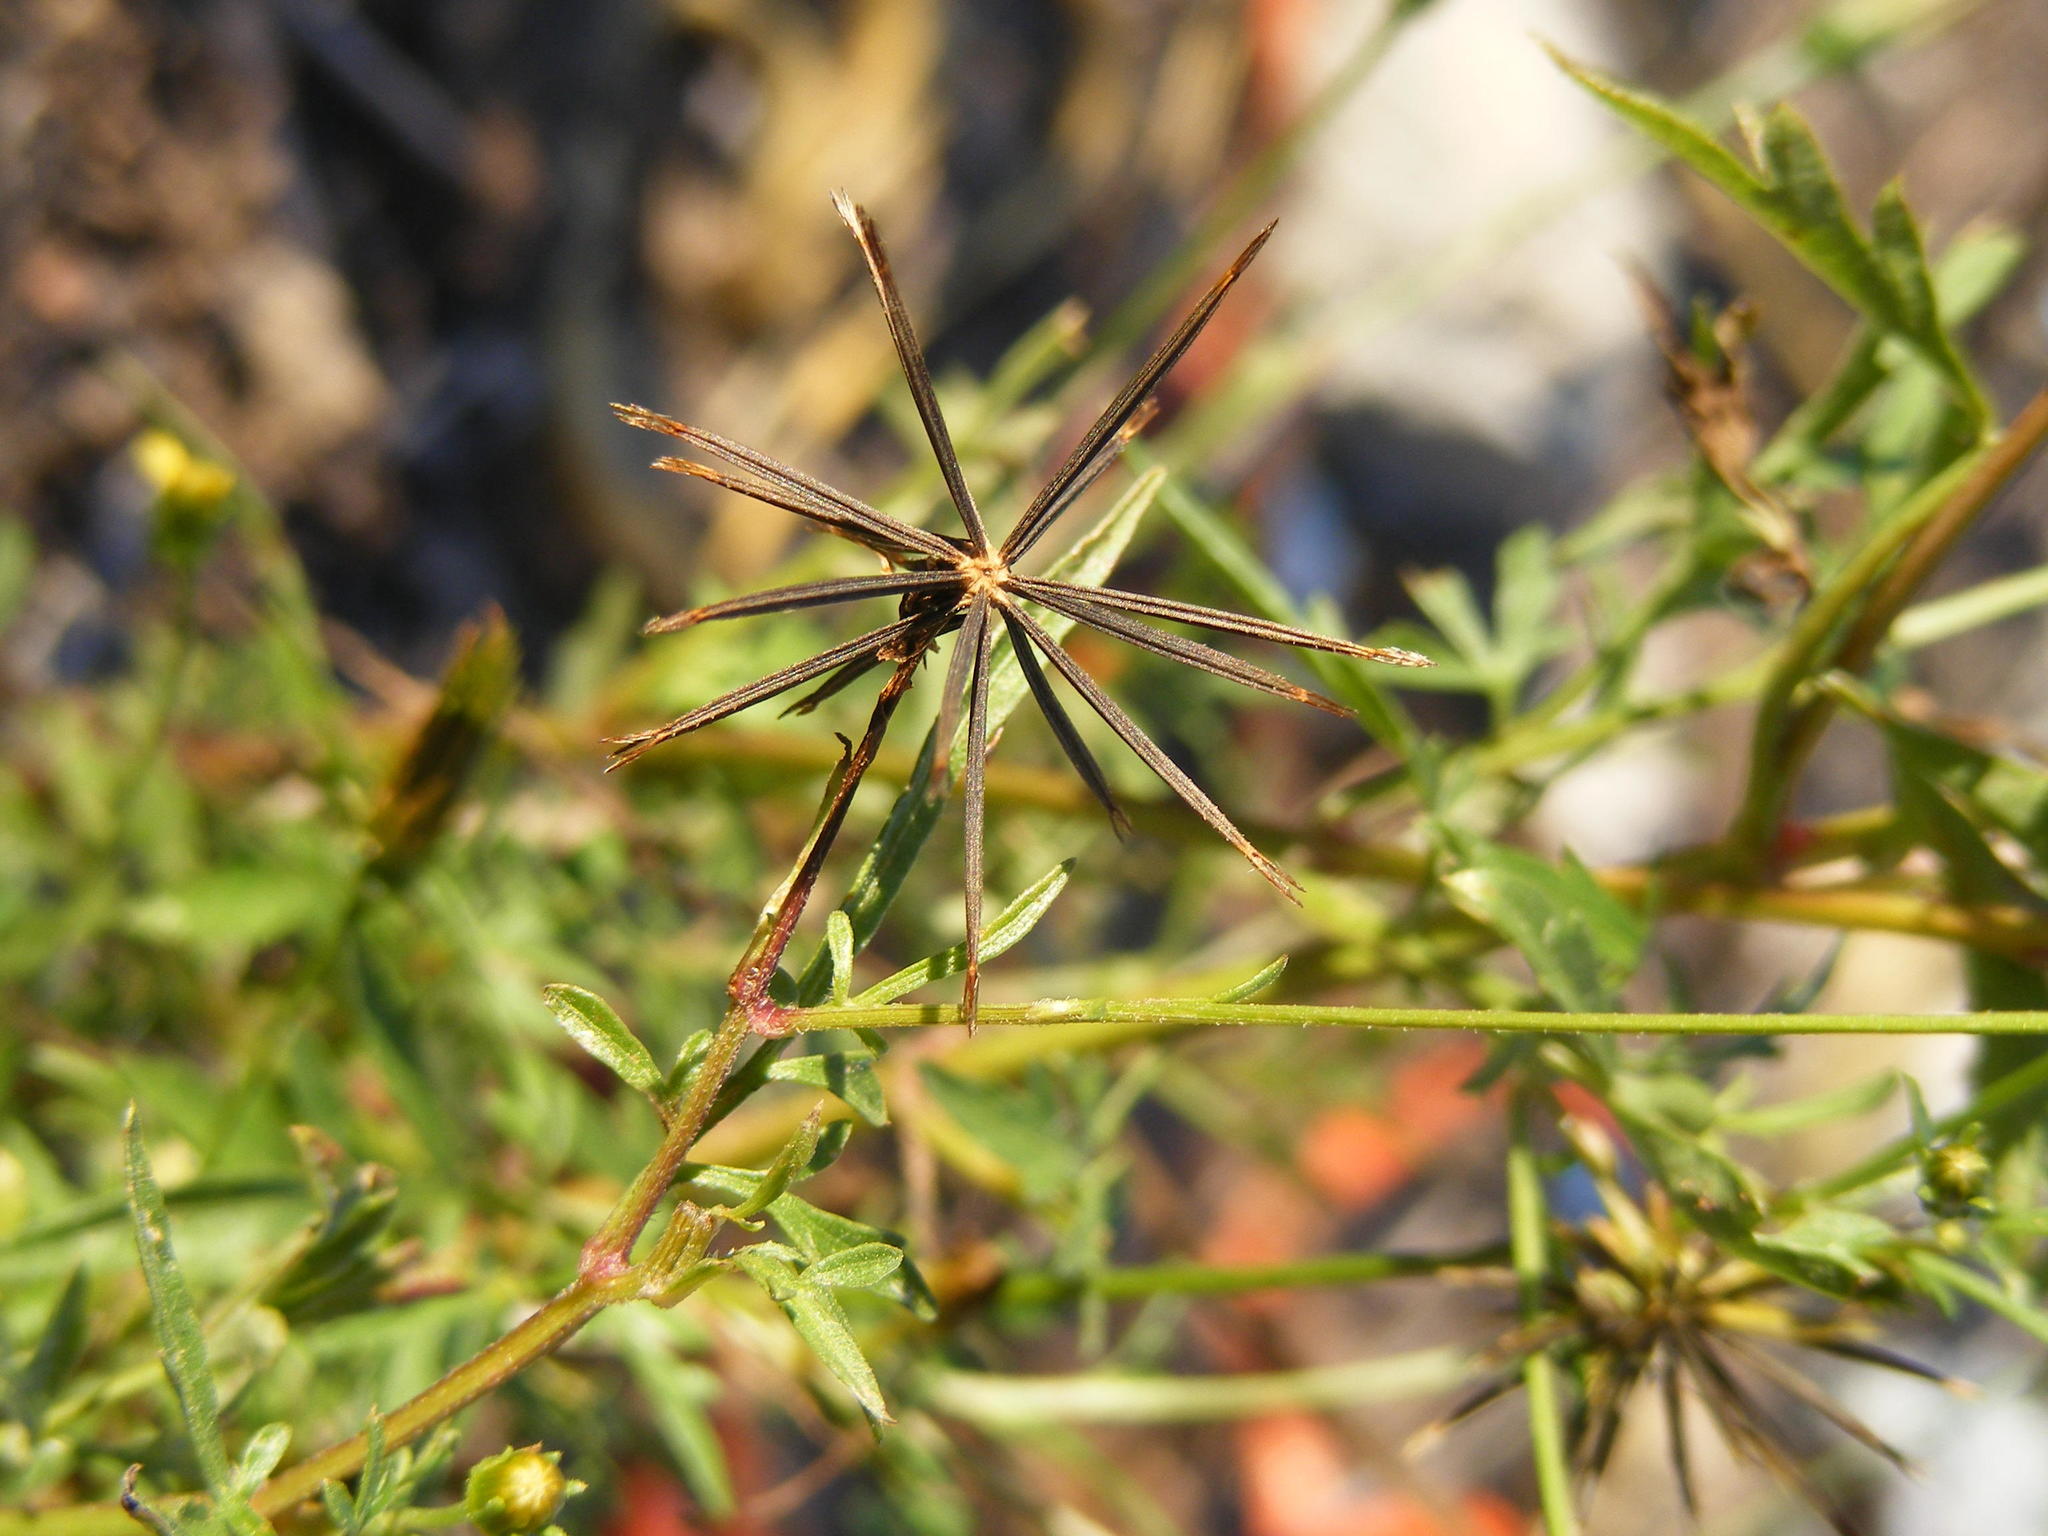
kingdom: Plantae
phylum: Tracheophyta
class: Magnoliopsida
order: Asterales
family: Asteraceae
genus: Bidens
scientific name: Bidens bipinnata
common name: Spanish-needles
